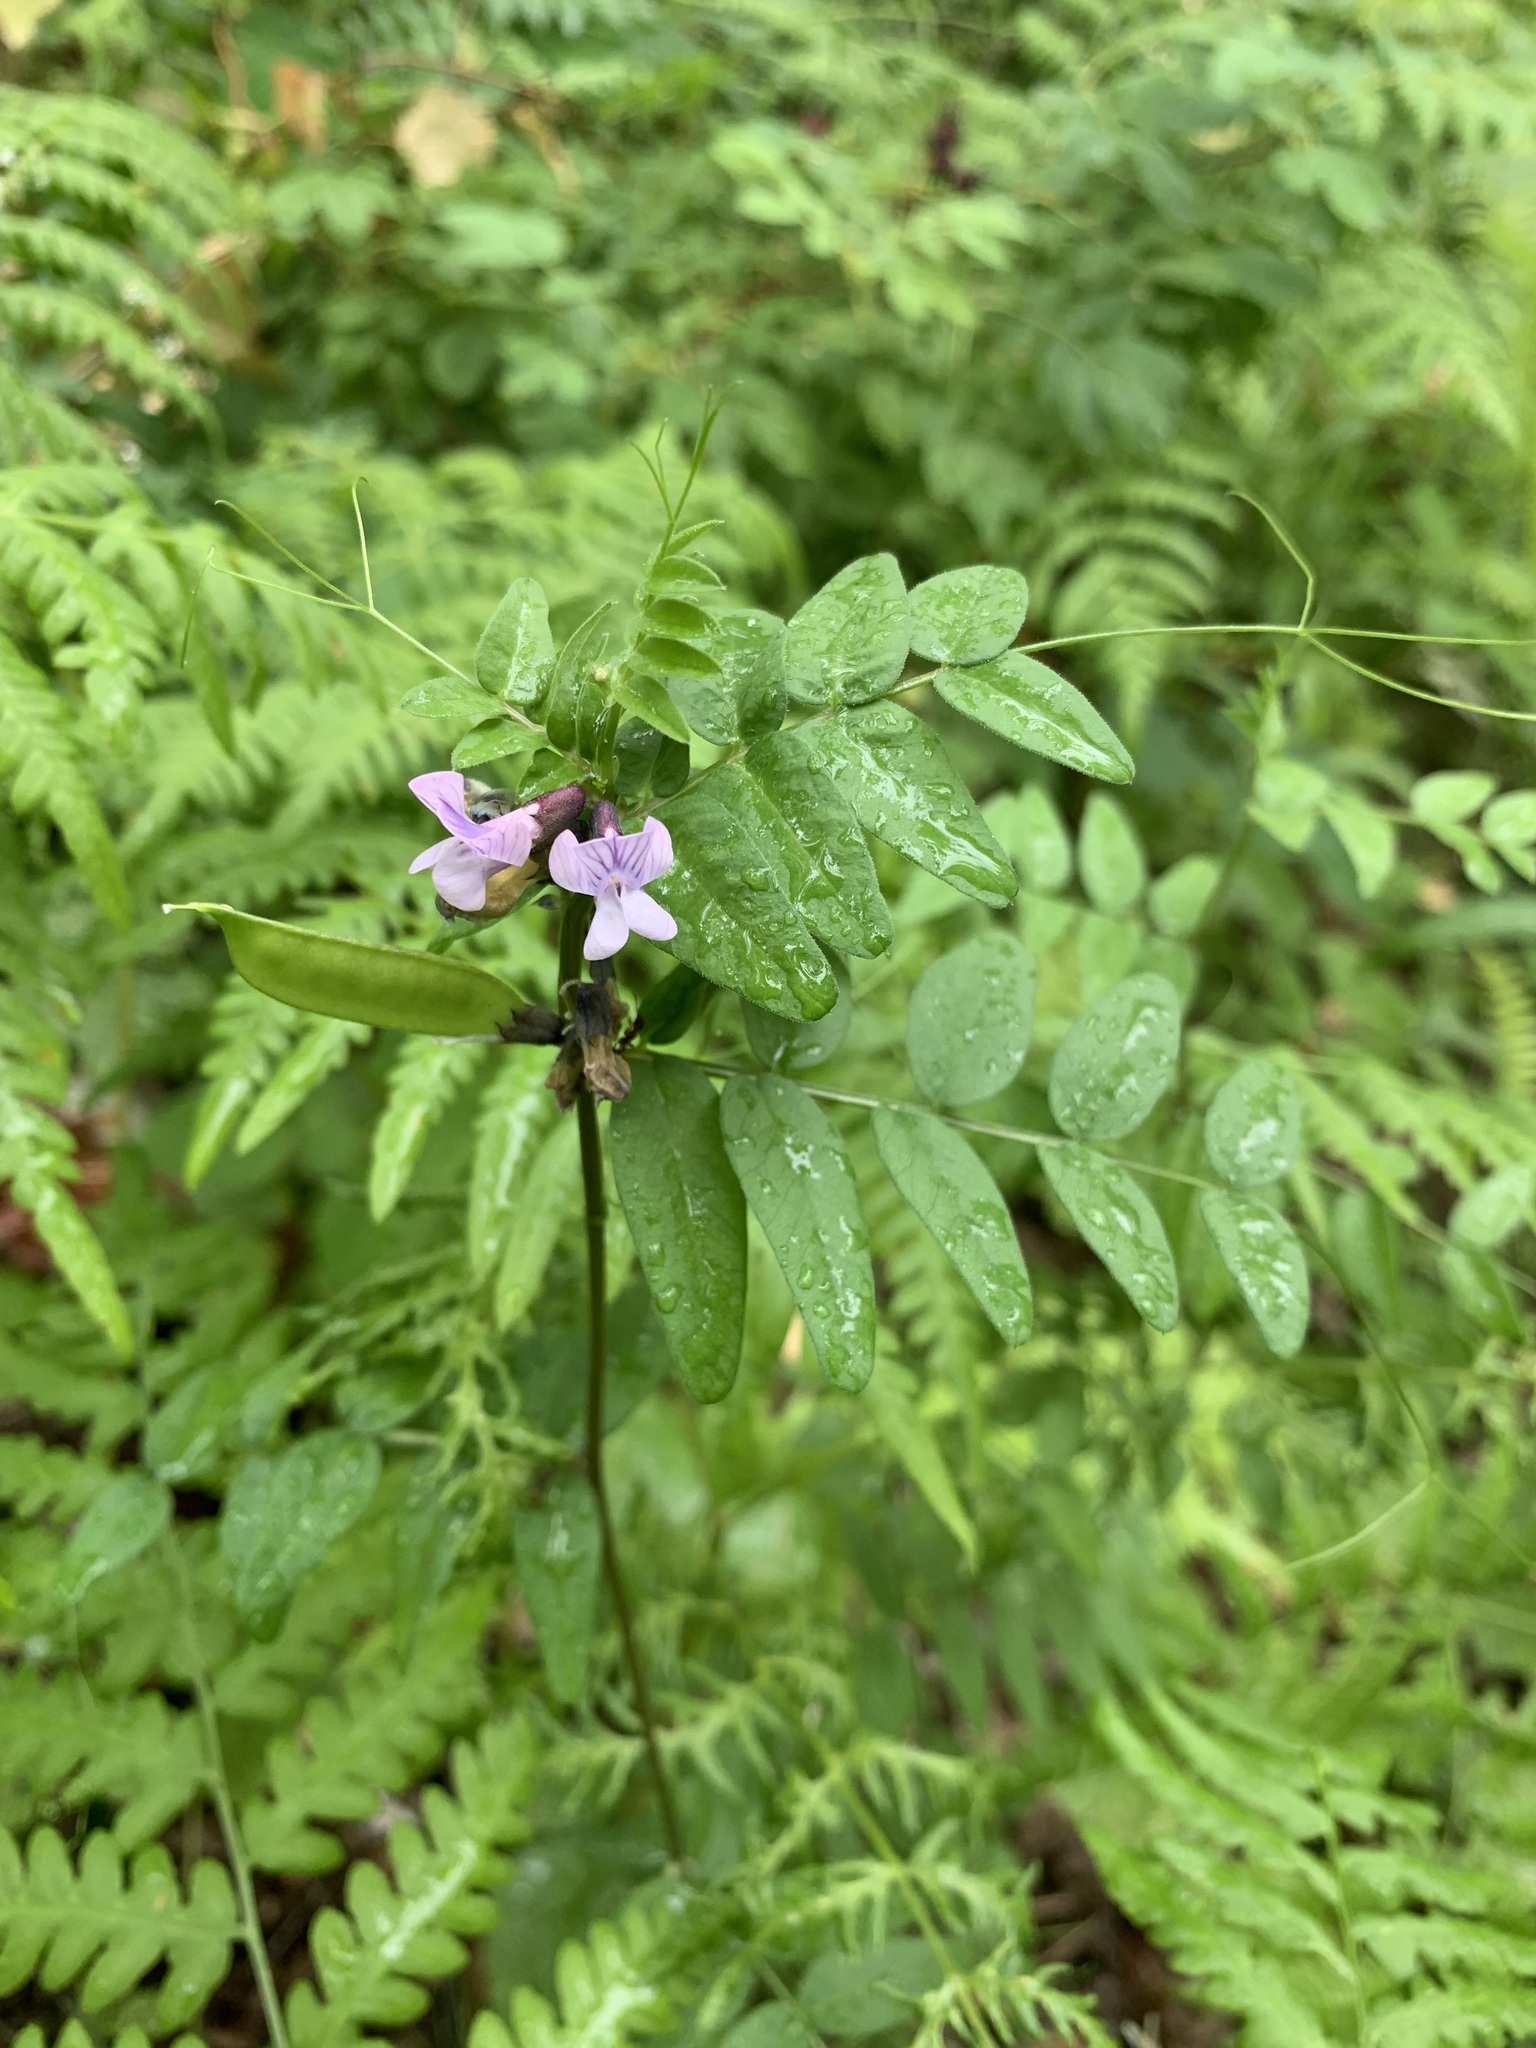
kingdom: Plantae
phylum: Tracheophyta
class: Magnoliopsida
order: Fabales
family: Fabaceae
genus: Vicia
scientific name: Vicia sepium
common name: Bush vetch
